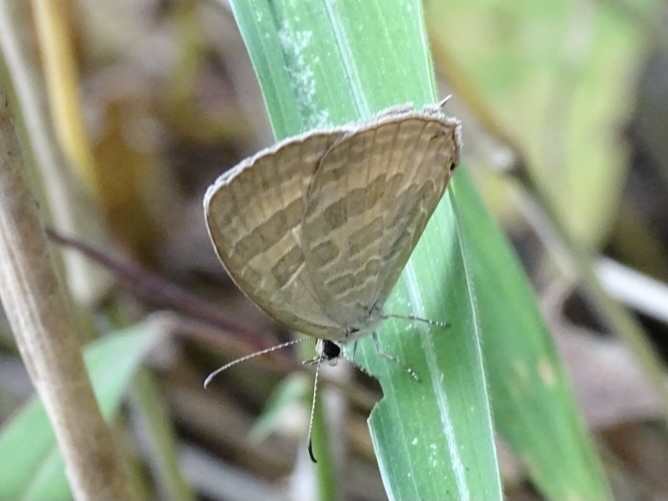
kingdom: Animalia
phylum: Arthropoda
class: Insecta
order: Lepidoptera
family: Lycaenidae
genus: Jamides
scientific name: Jamides celeno
